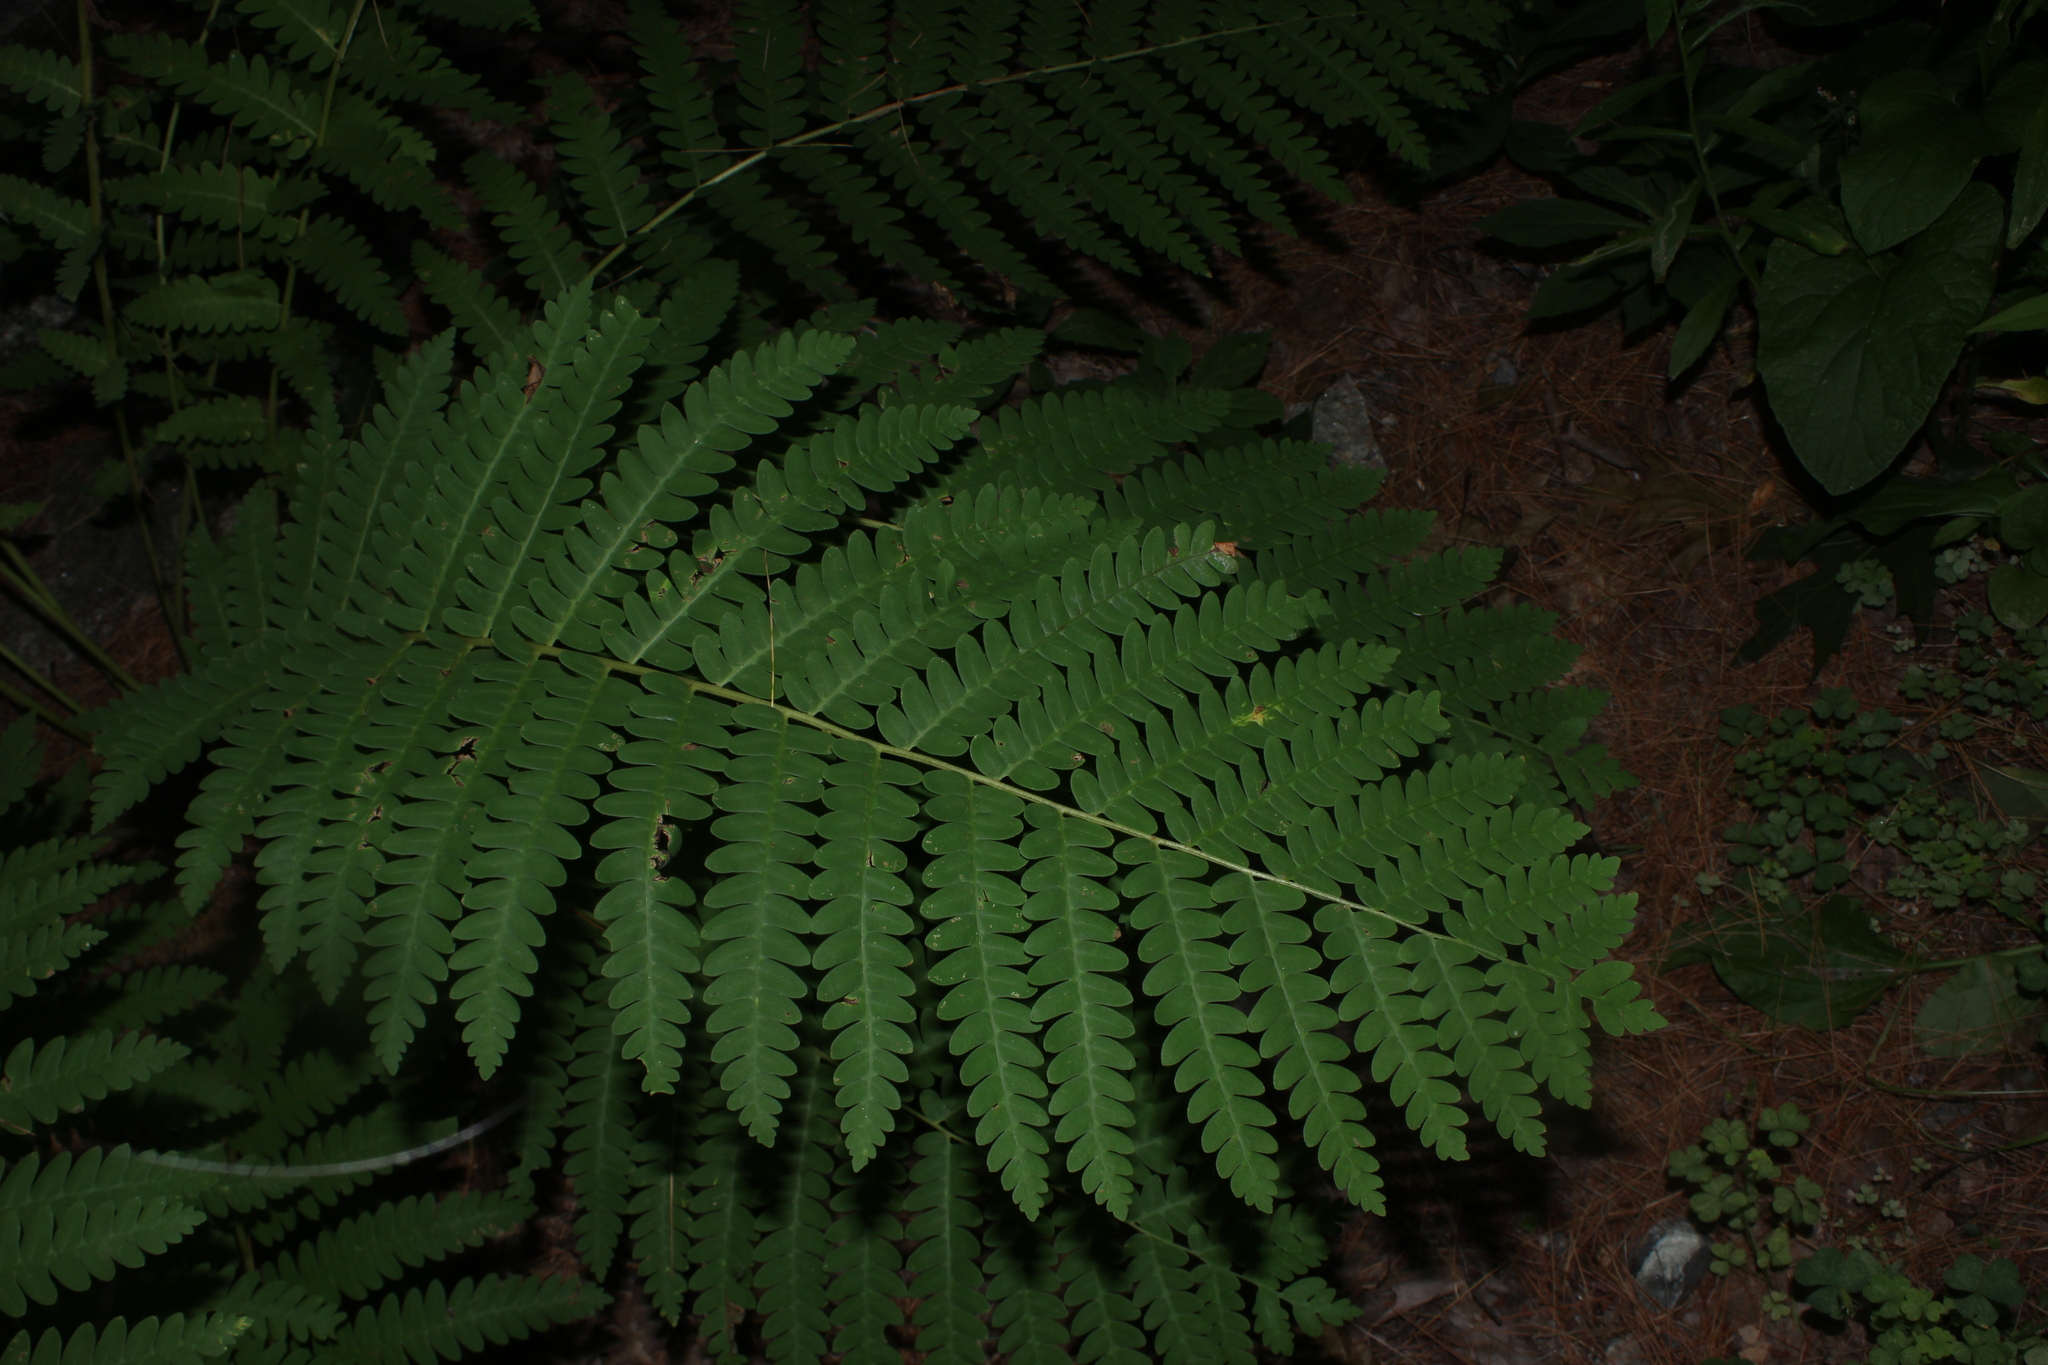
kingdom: Plantae
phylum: Tracheophyta
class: Polypodiopsida
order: Osmundales
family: Osmundaceae
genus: Claytosmunda
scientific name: Claytosmunda claytoniana
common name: Clayton's fern
